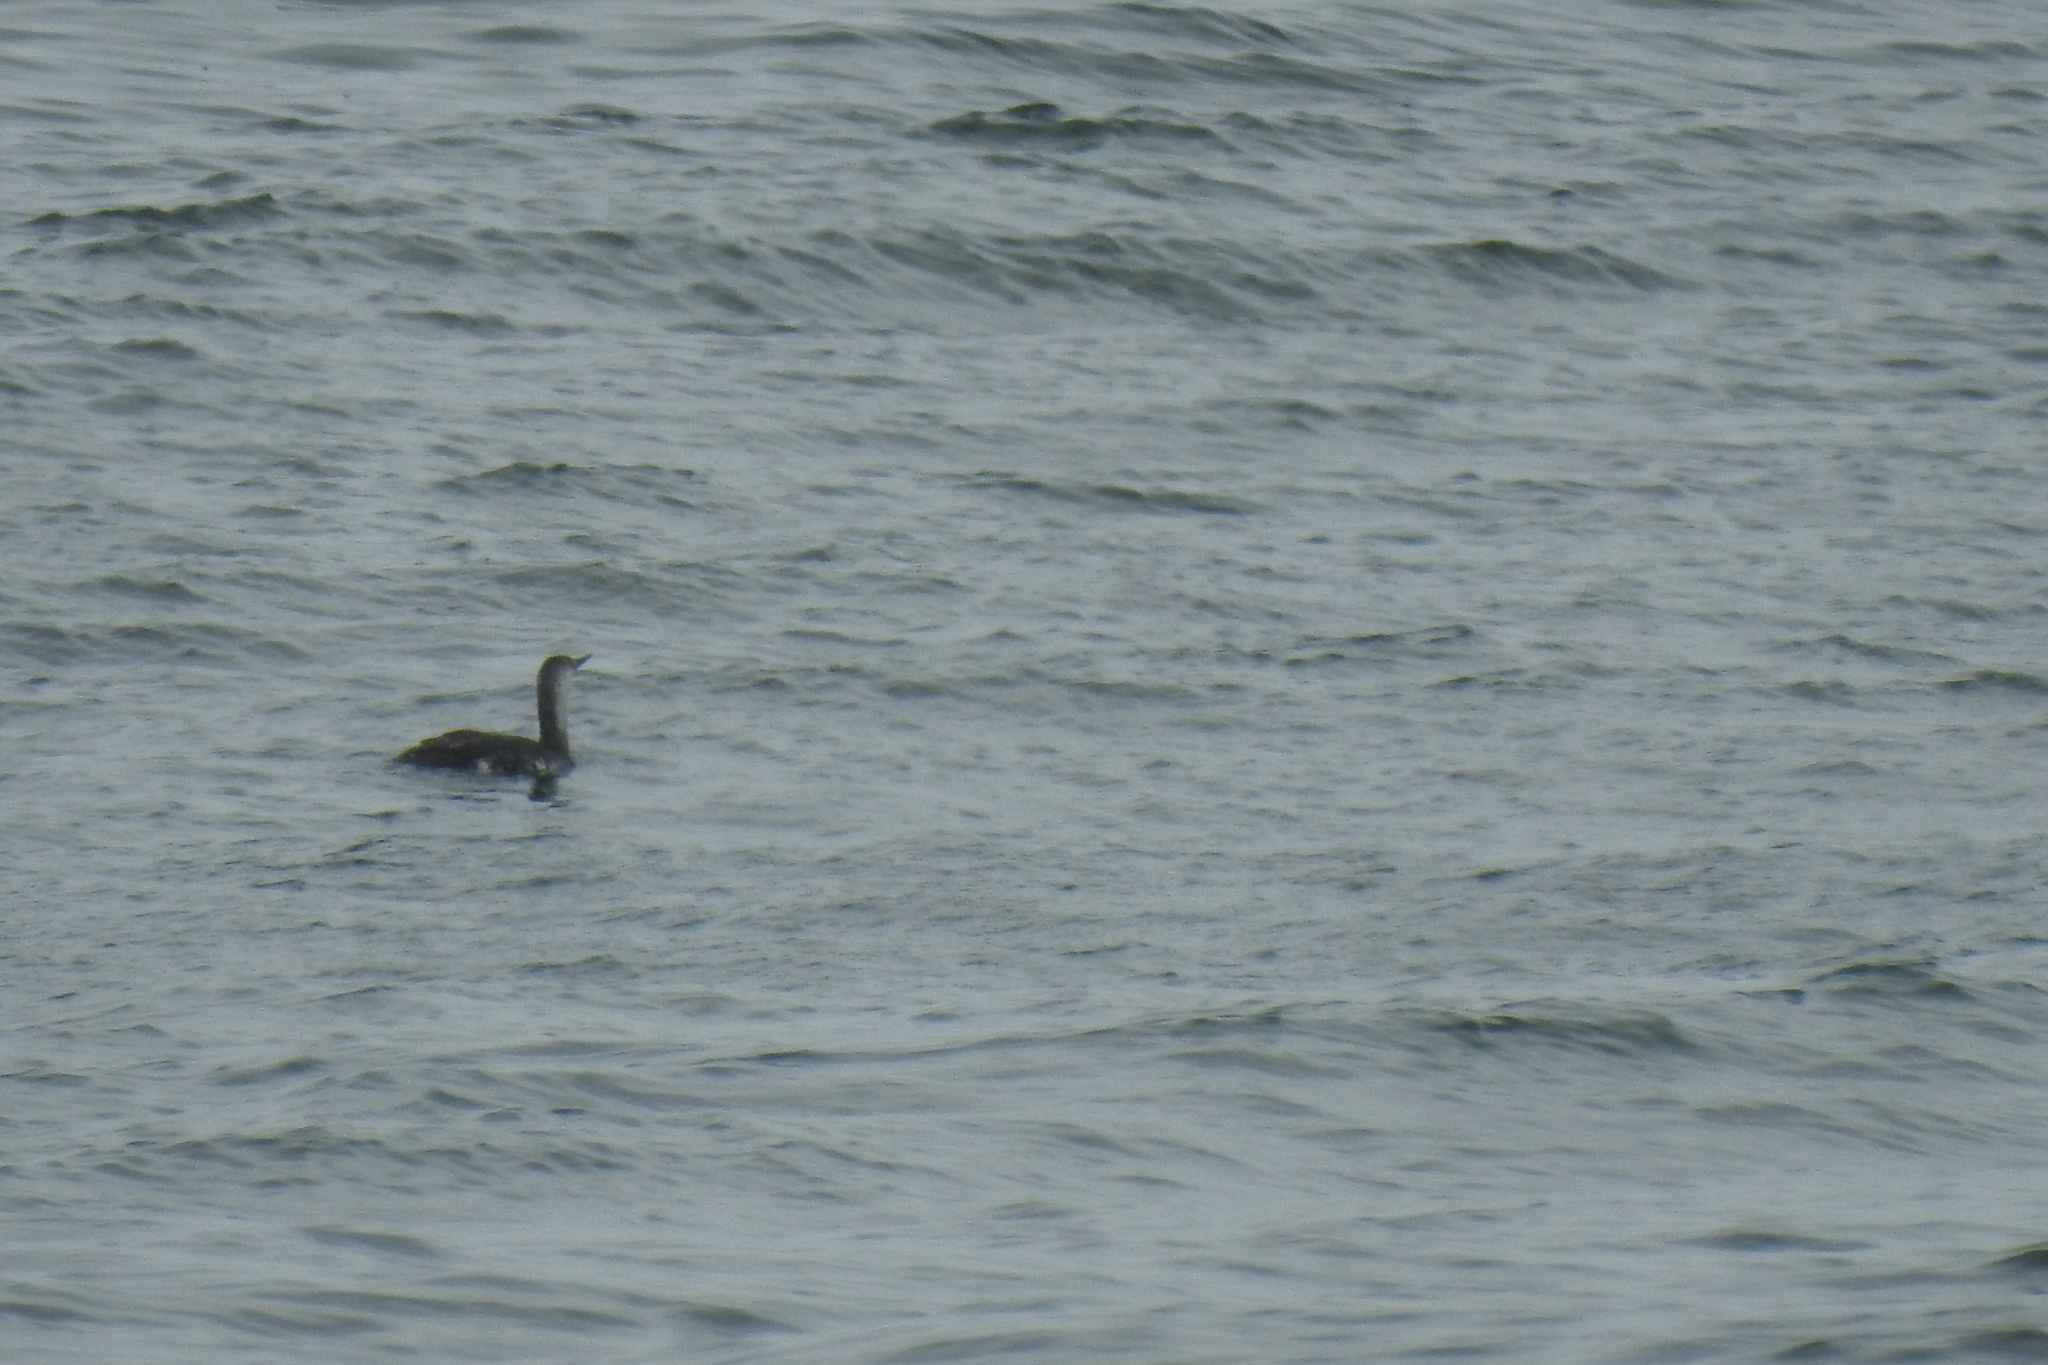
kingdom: Animalia
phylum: Chordata
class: Aves
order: Gaviiformes
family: Gaviidae
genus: Gavia
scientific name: Gavia stellata
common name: Red-throated loon
